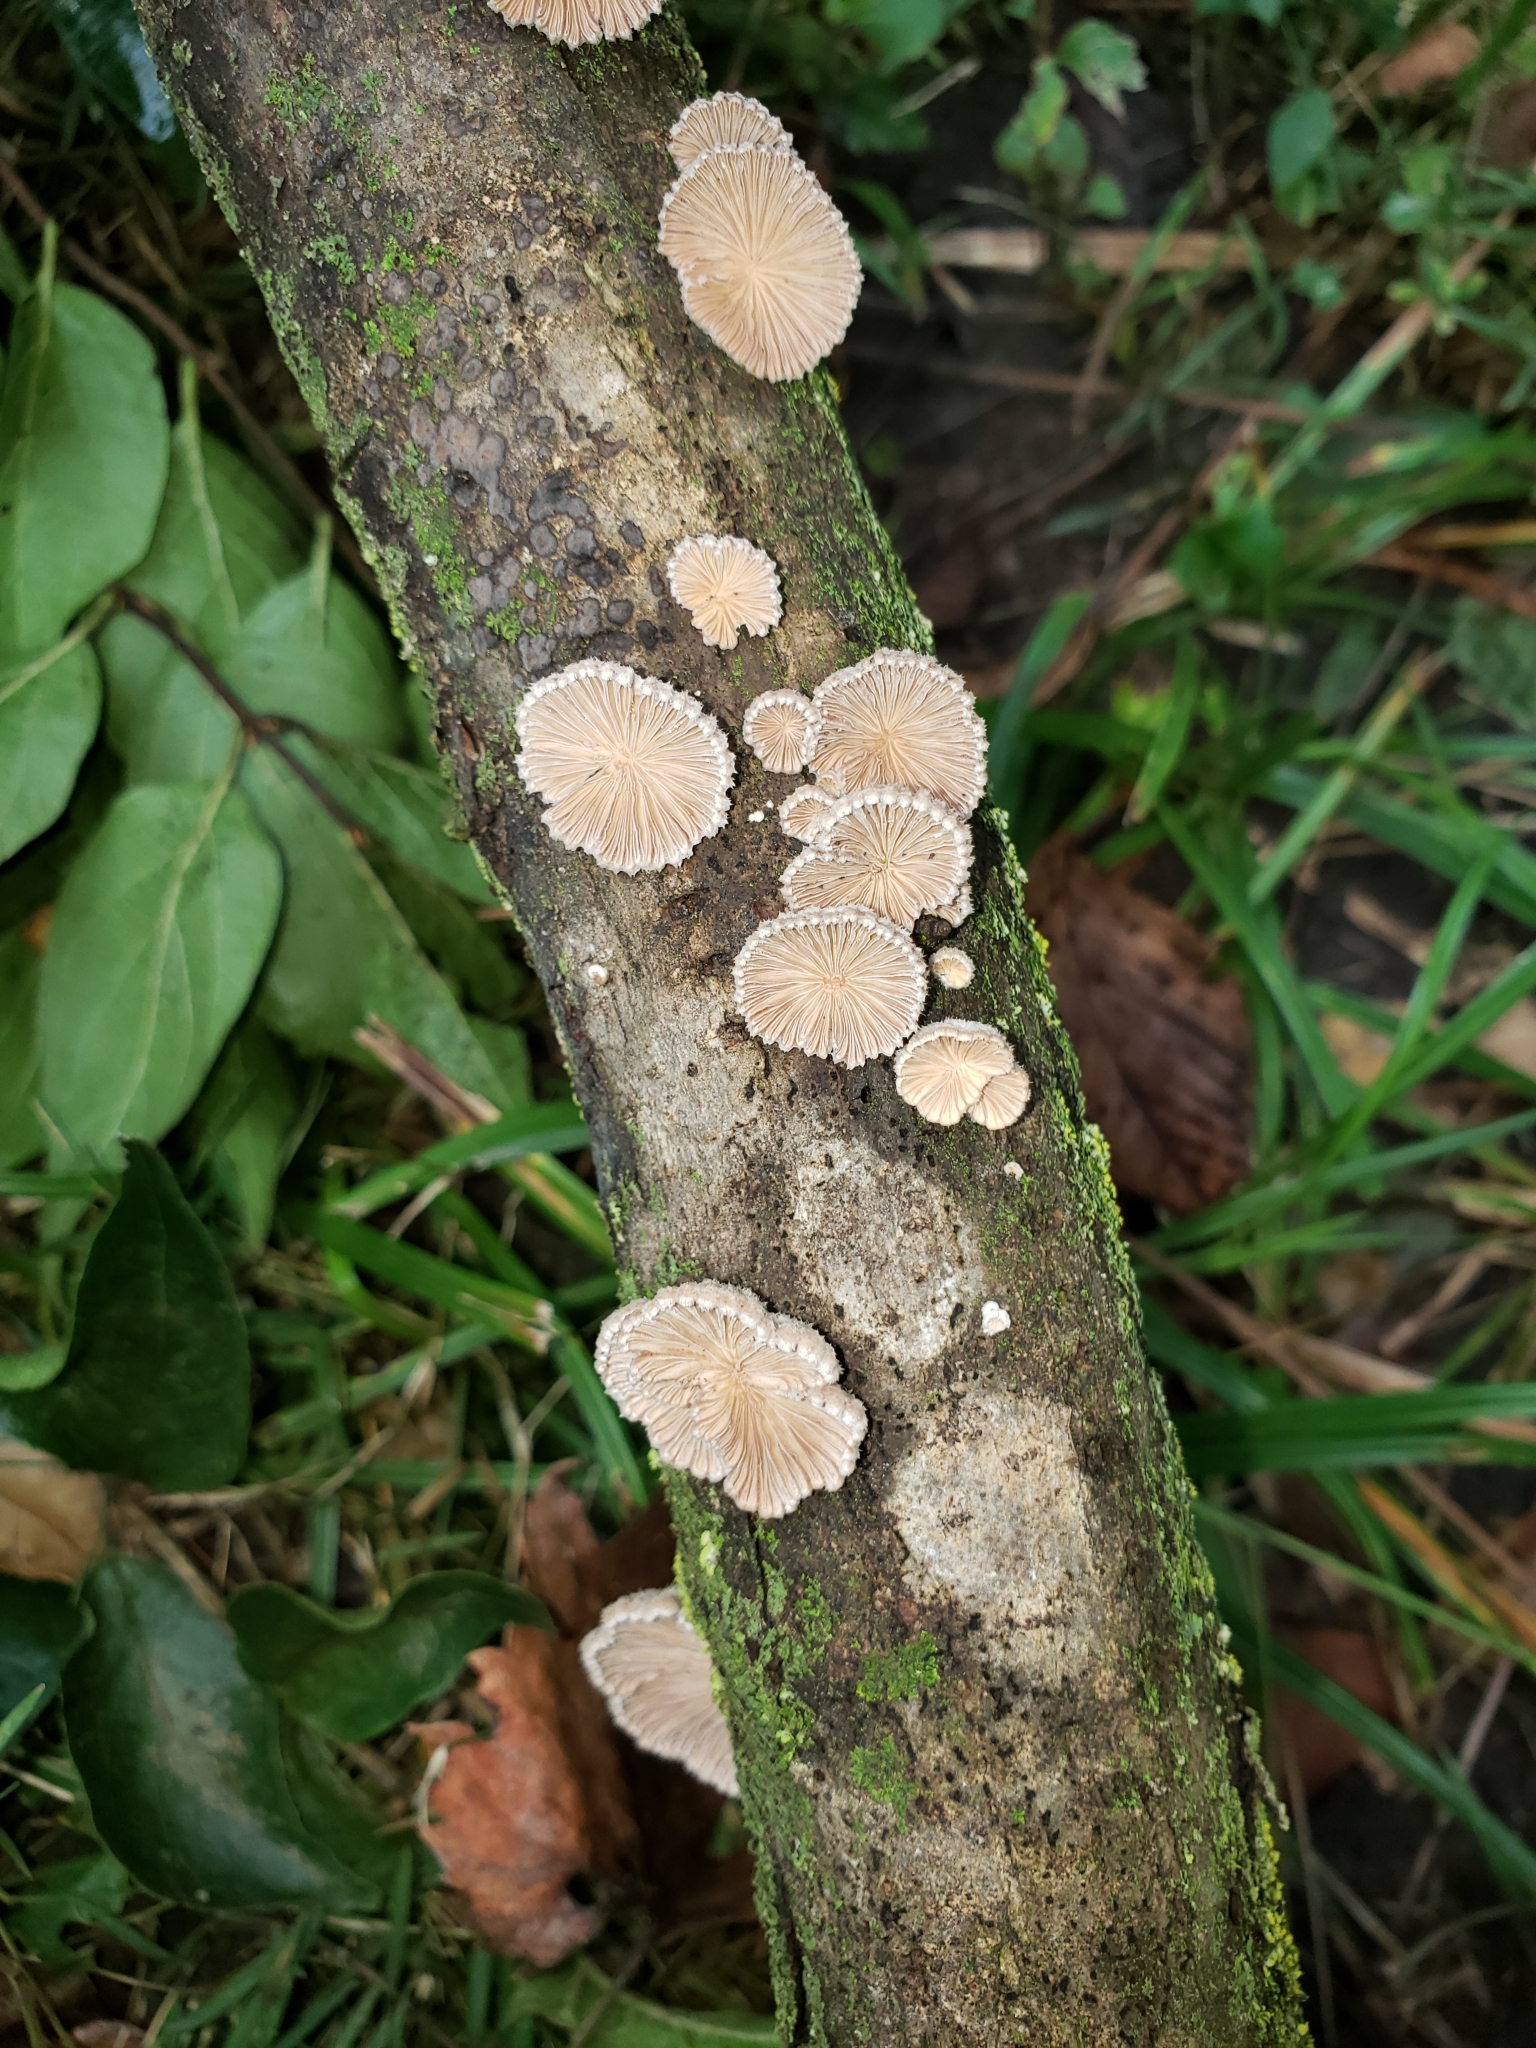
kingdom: Fungi
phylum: Basidiomycota
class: Agaricomycetes
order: Agaricales
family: Schizophyllaceae
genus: Schizophyllum
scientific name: Schizophyllum commune
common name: Common porecrust
